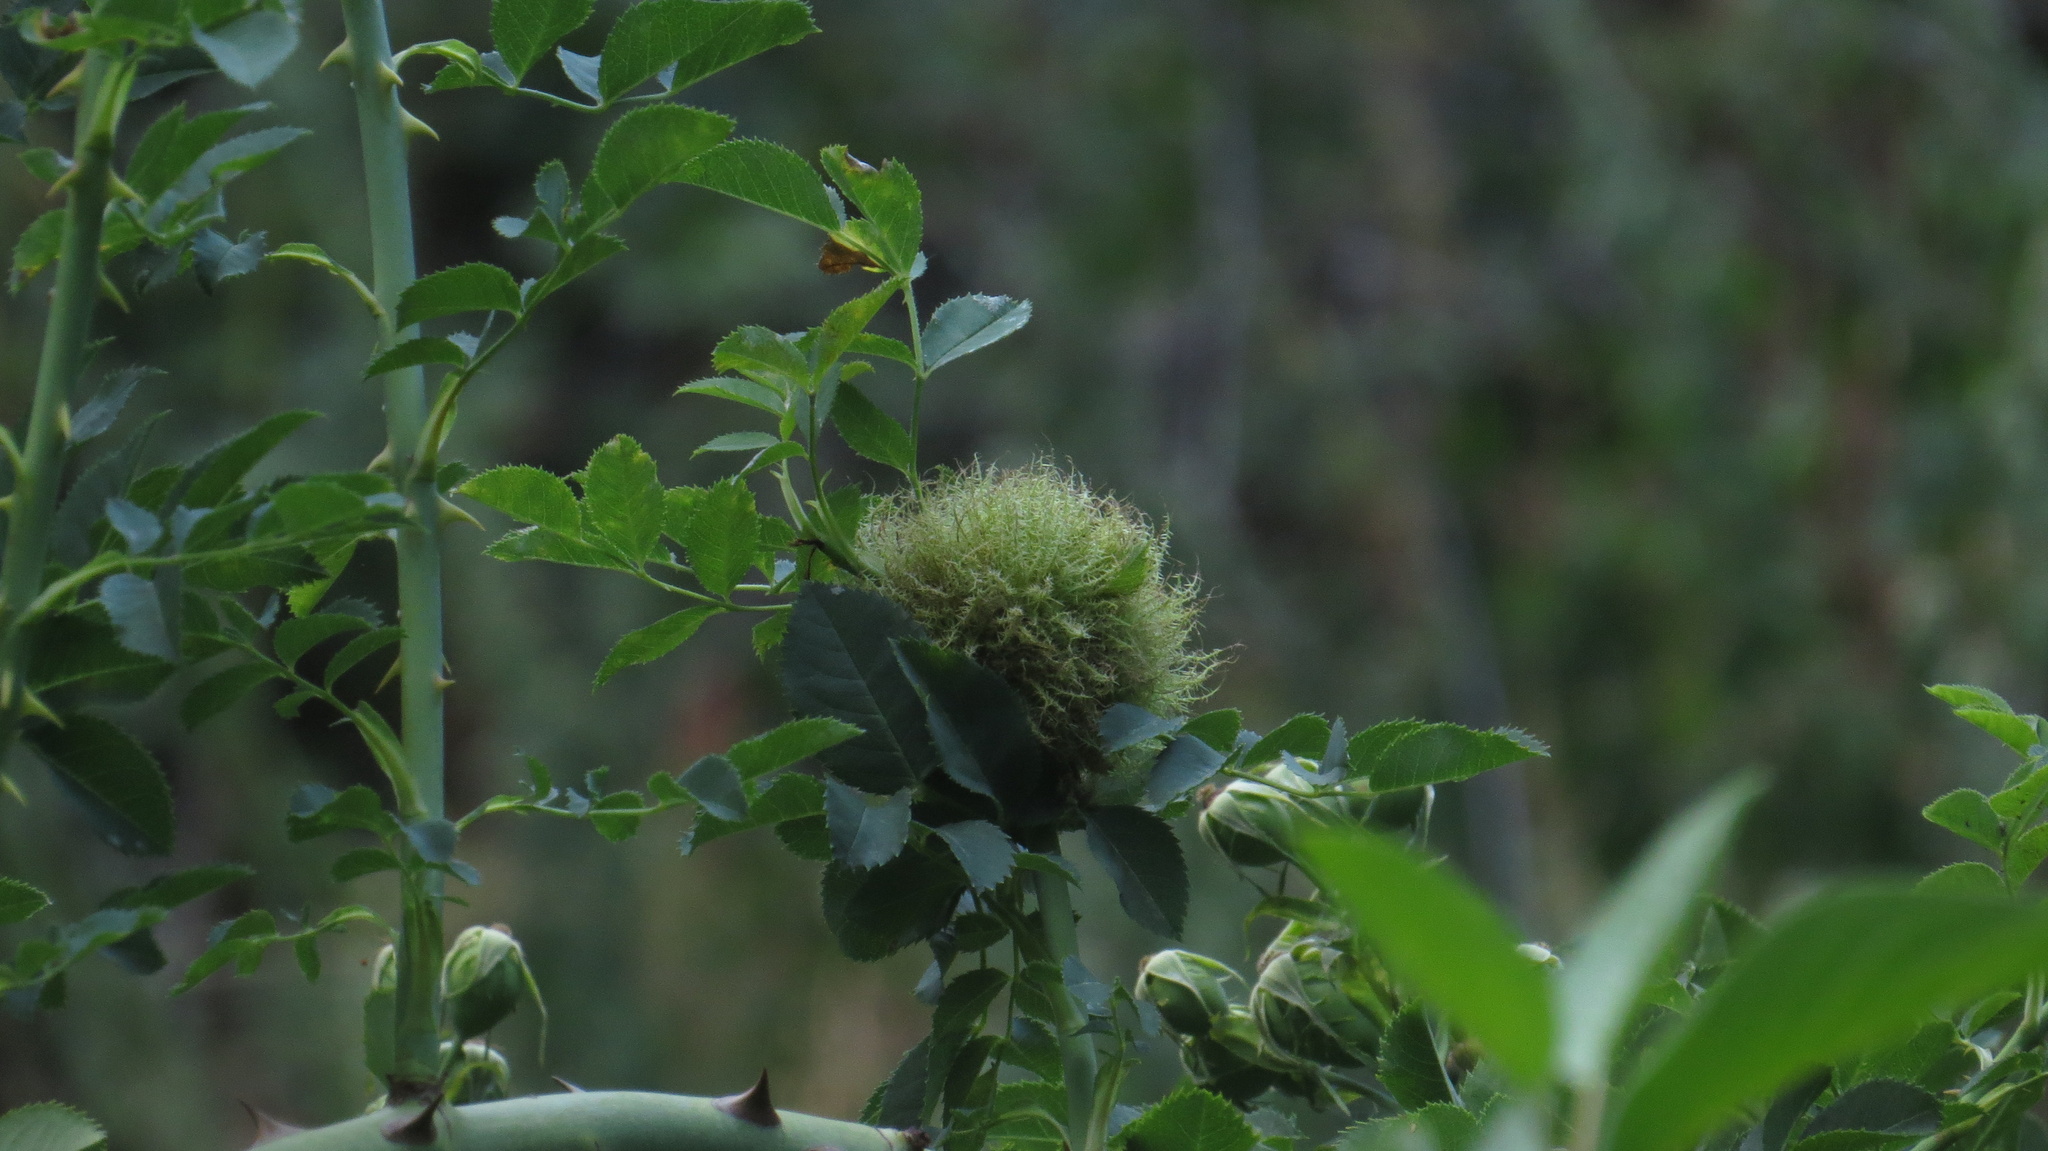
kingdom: Animalia
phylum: Arthropoda
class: Insecta
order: Hymenoptera
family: Cynipidae
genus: Diplolepis
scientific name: Diplolepis rosae
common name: Bedeguar gall
